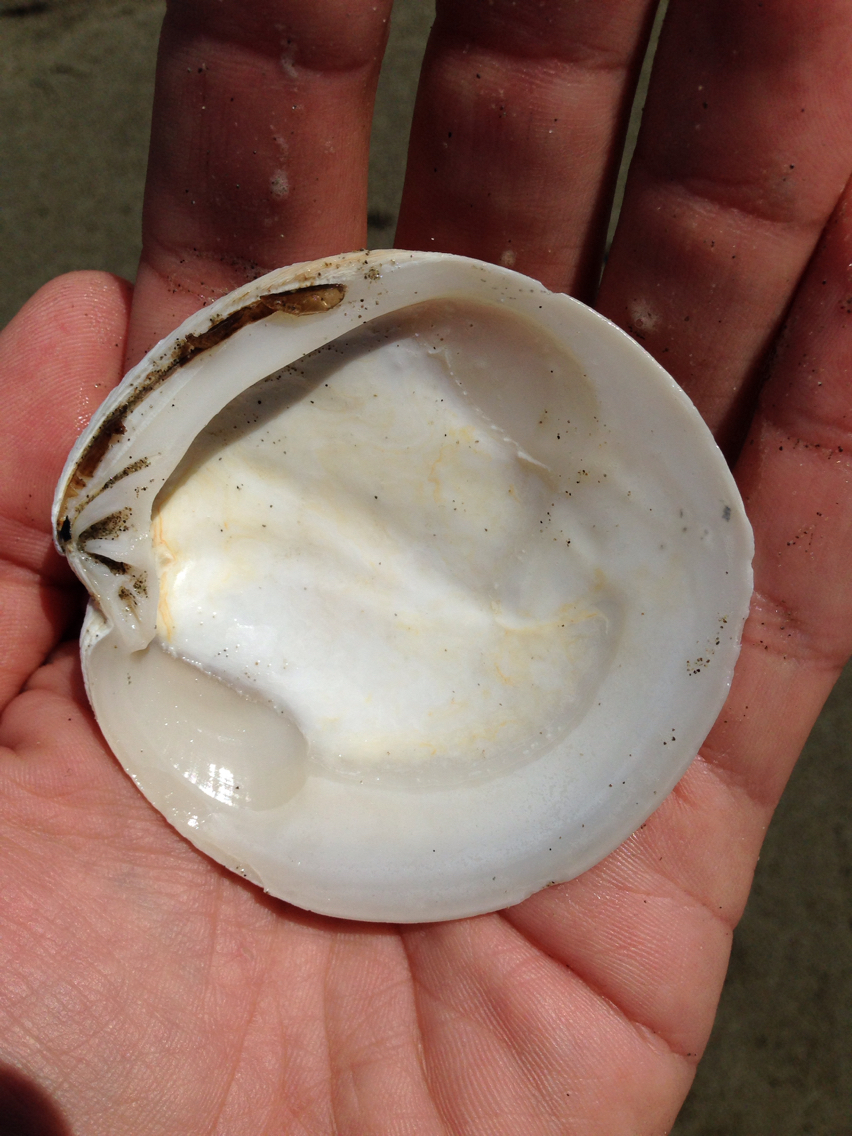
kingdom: Animalia
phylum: Mollusca
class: Bivalvia
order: Venerida
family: Veneridae
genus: Dosinia
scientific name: Dosinia anus
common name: Old-woman dosinia
